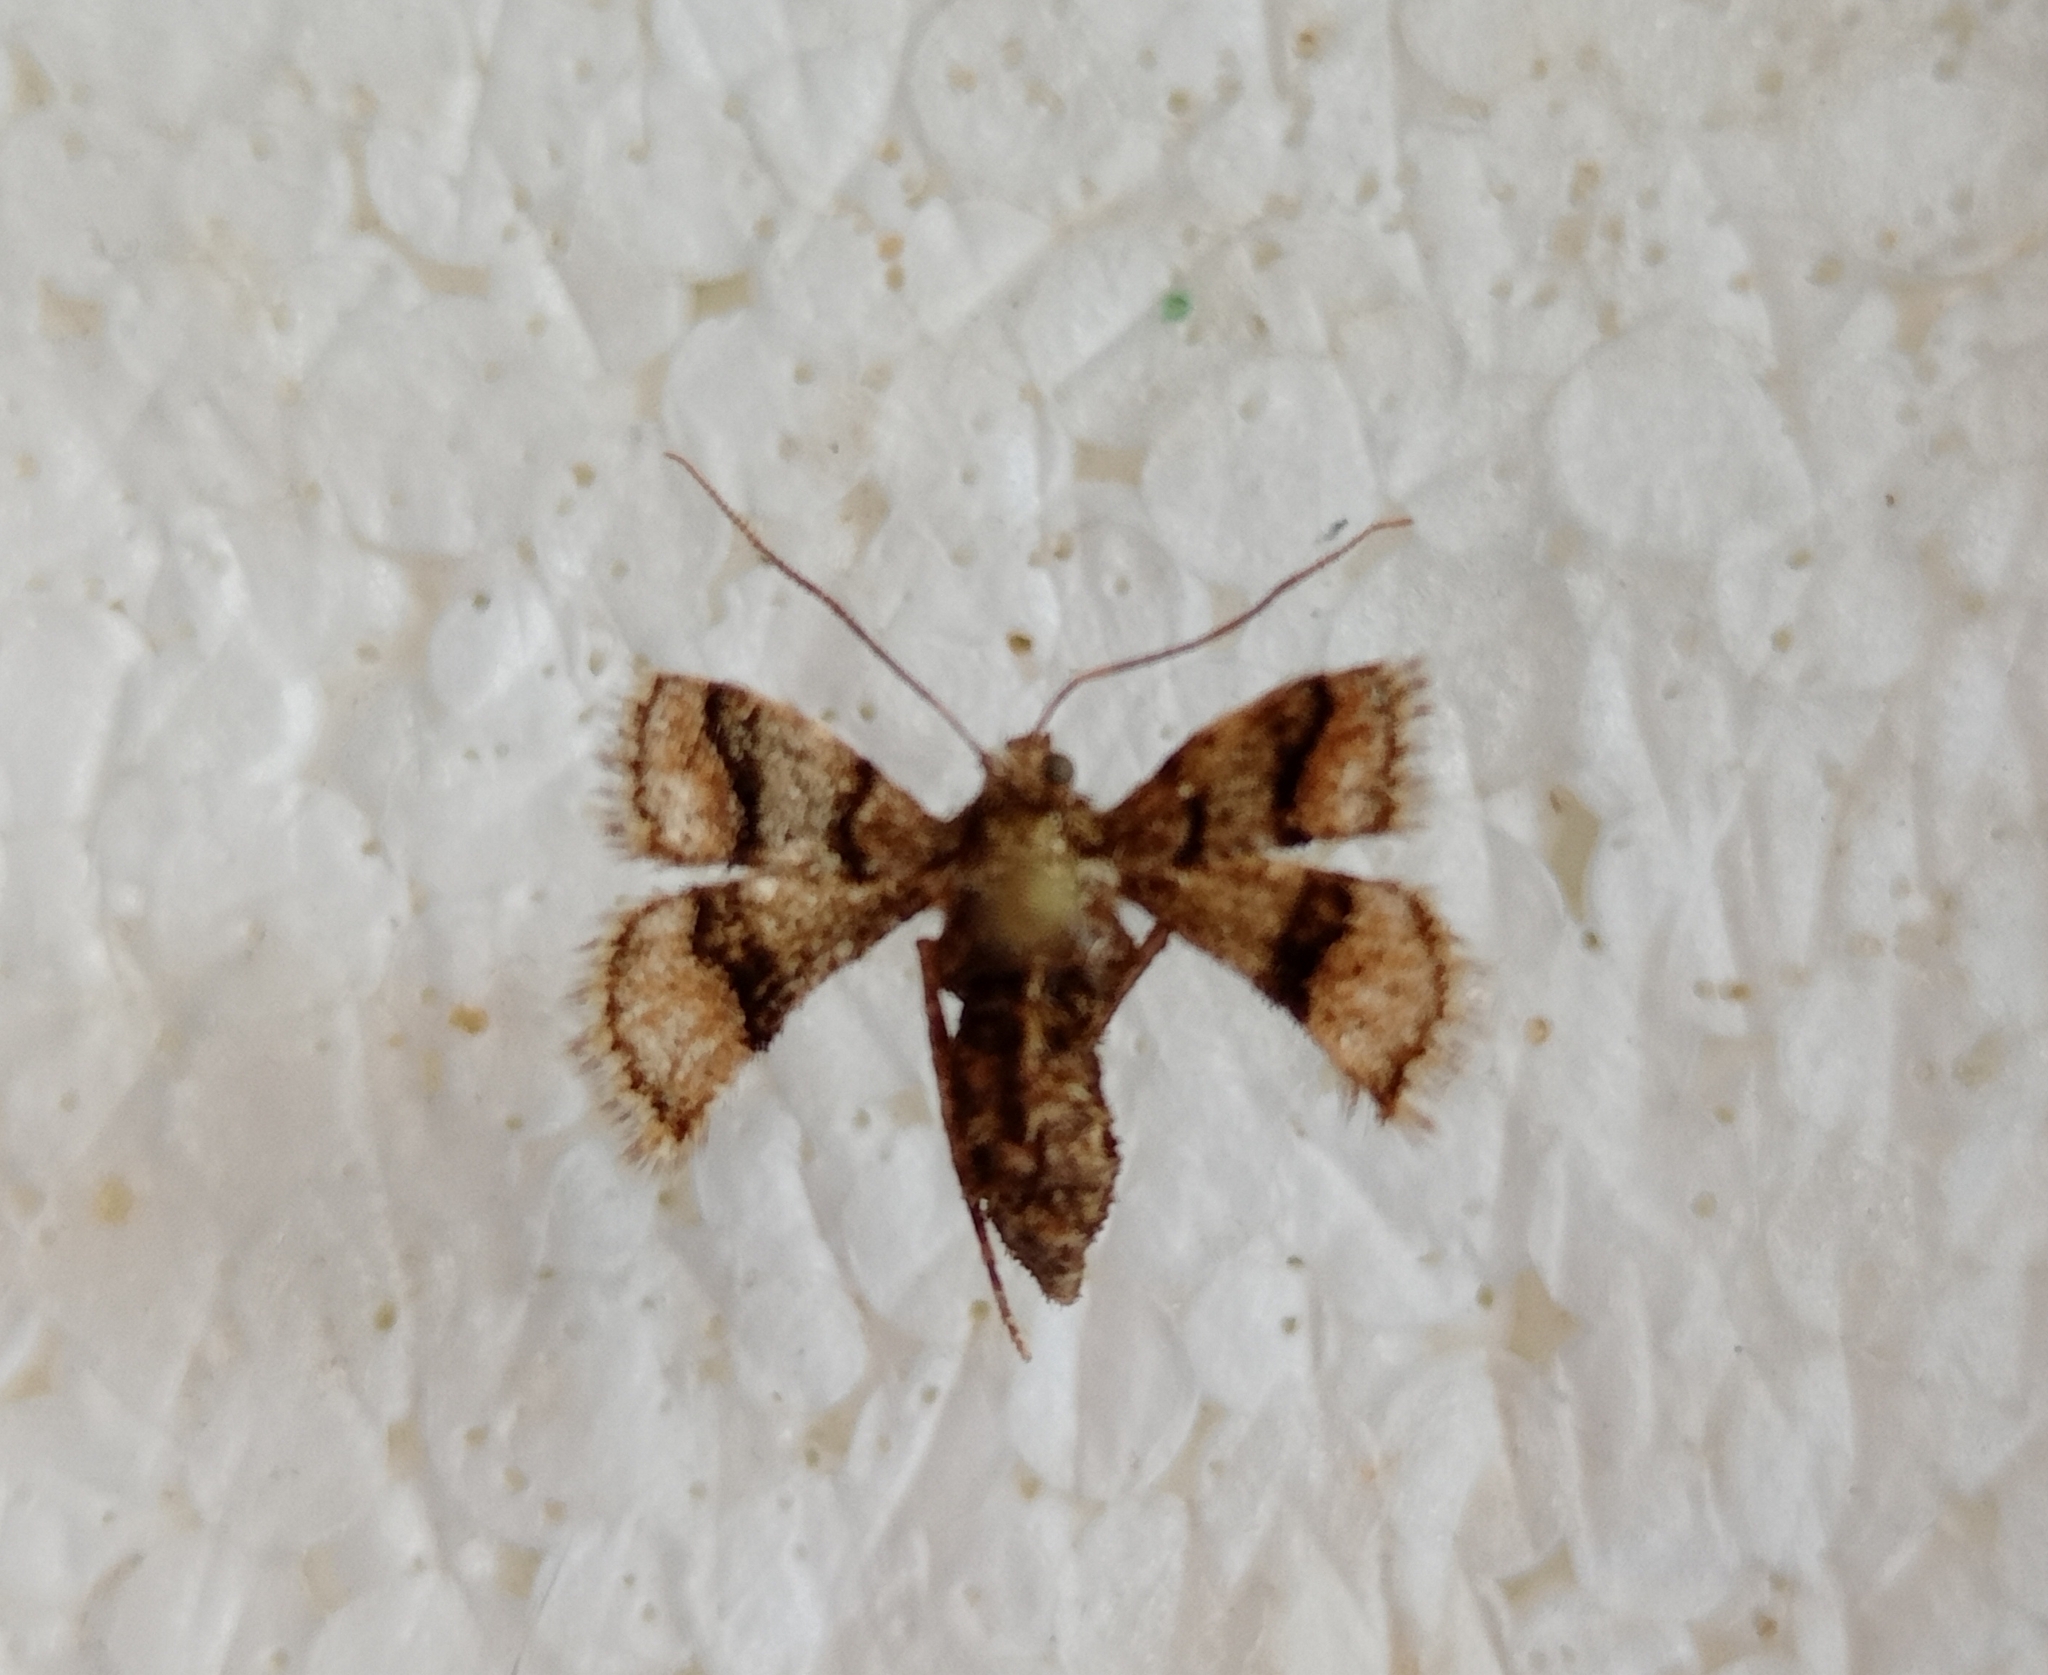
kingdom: Animalia
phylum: Arthropoda
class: Insecta
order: Lepidoptera
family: Geometridae
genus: Agriopis
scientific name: Agriopis marginaria
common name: Dotted border
